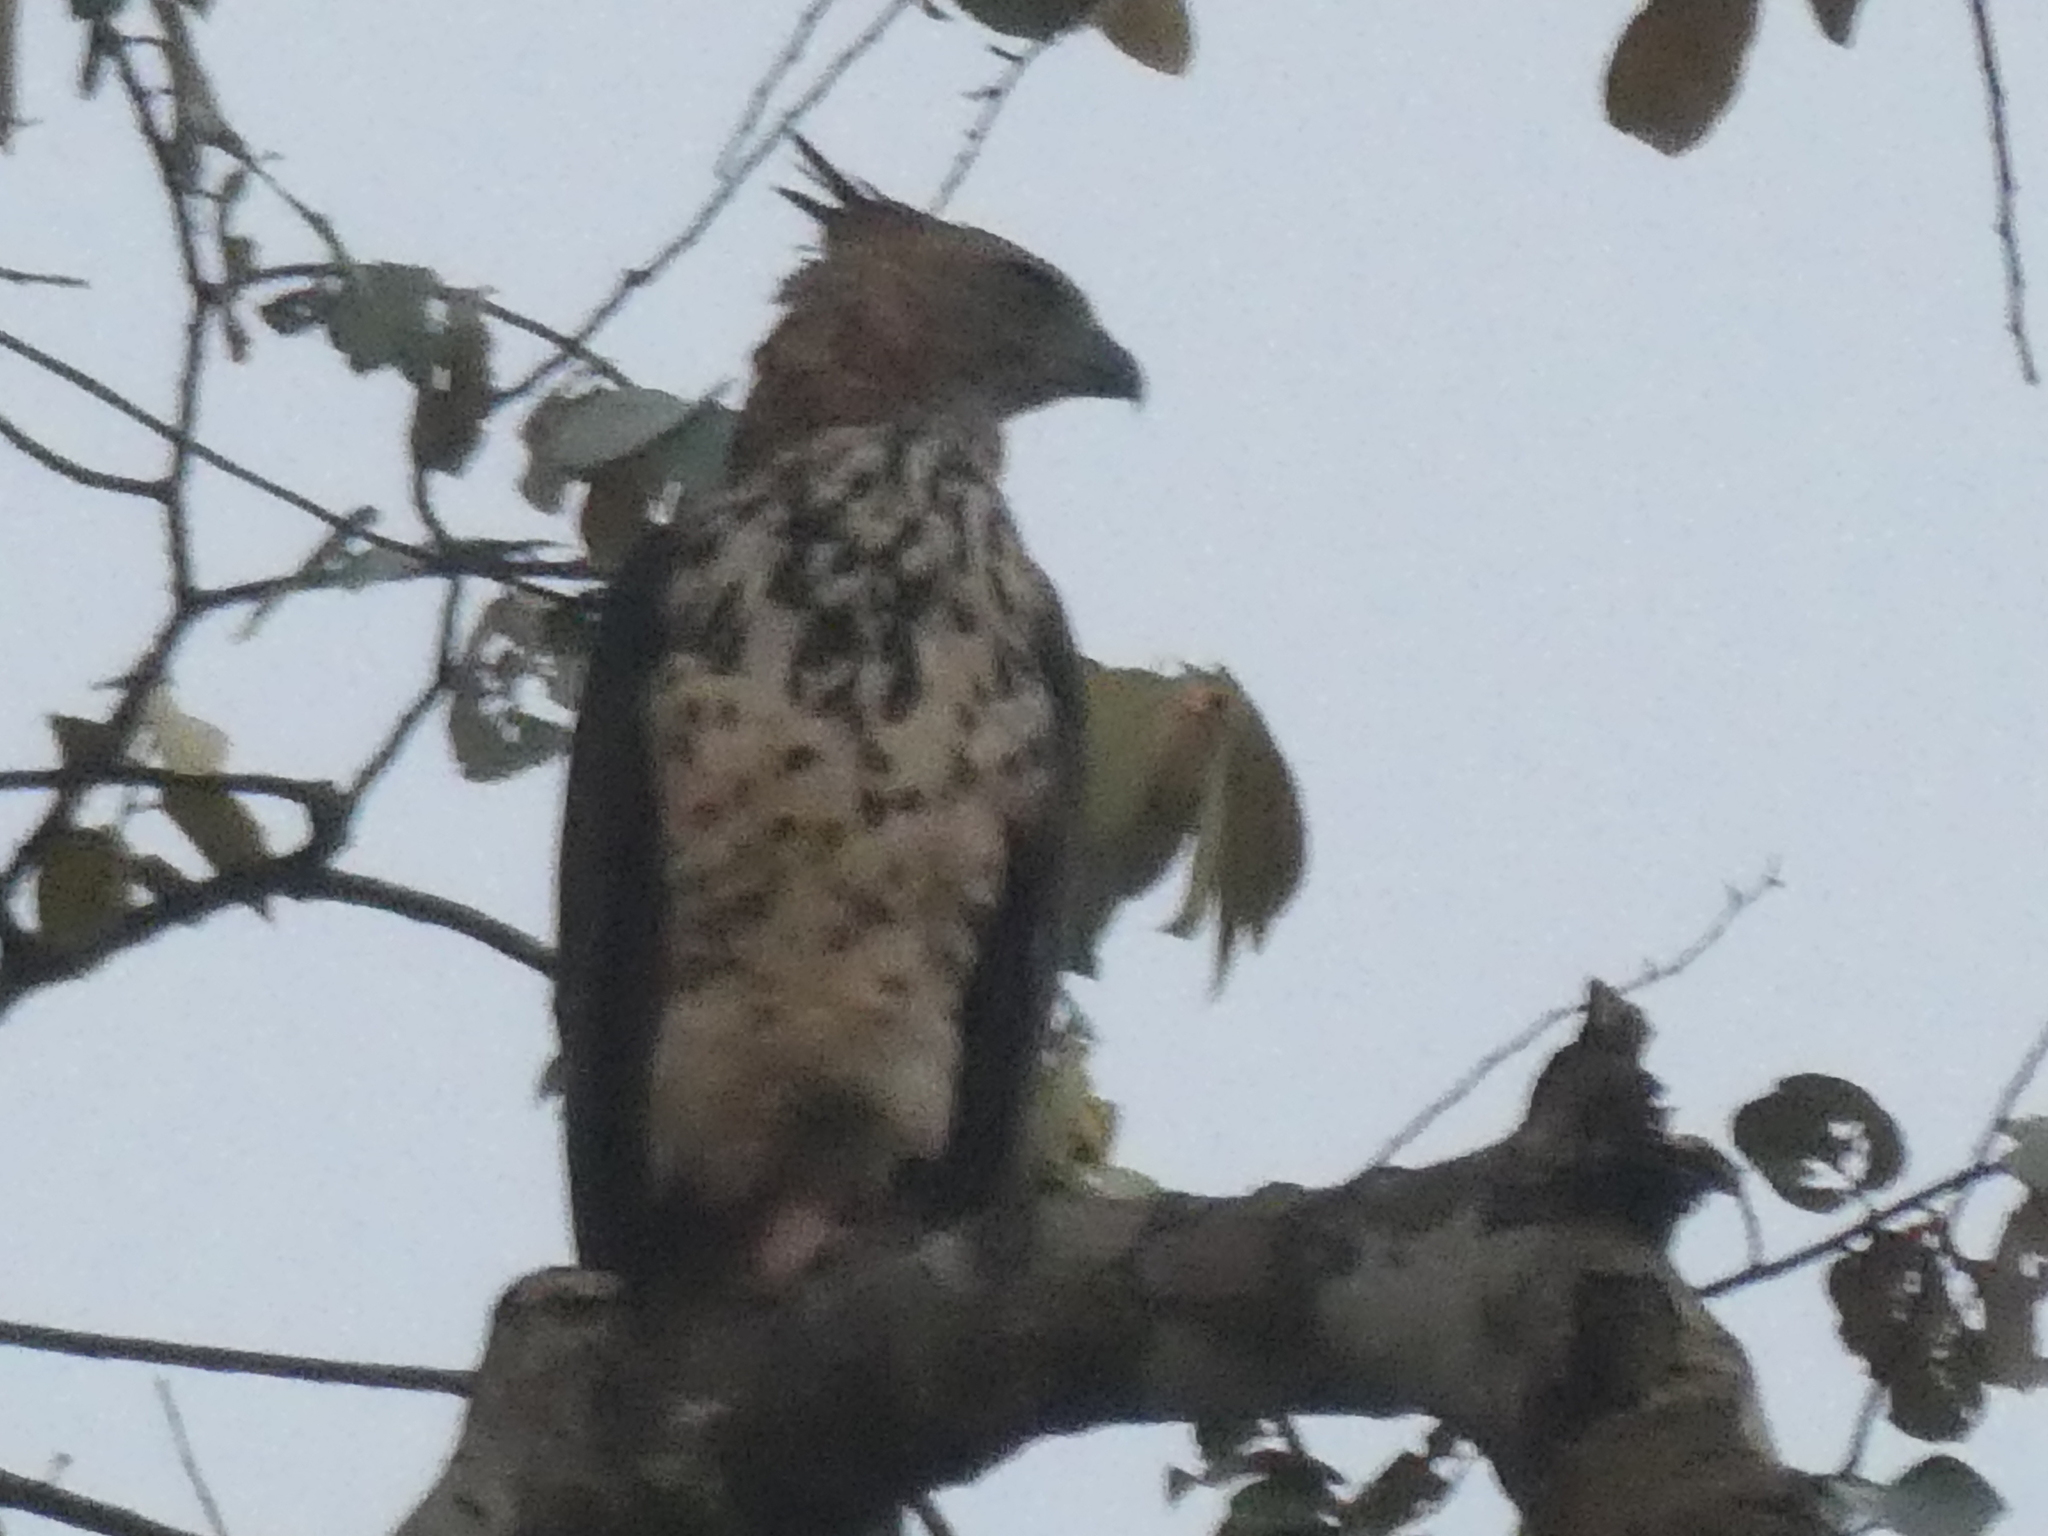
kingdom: Animalia
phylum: Chordata
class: Aves
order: Accipitriformes
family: Accipitridae
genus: Nisaetus
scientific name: Nisaetus nanus
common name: Wallace's hawk-eagle
